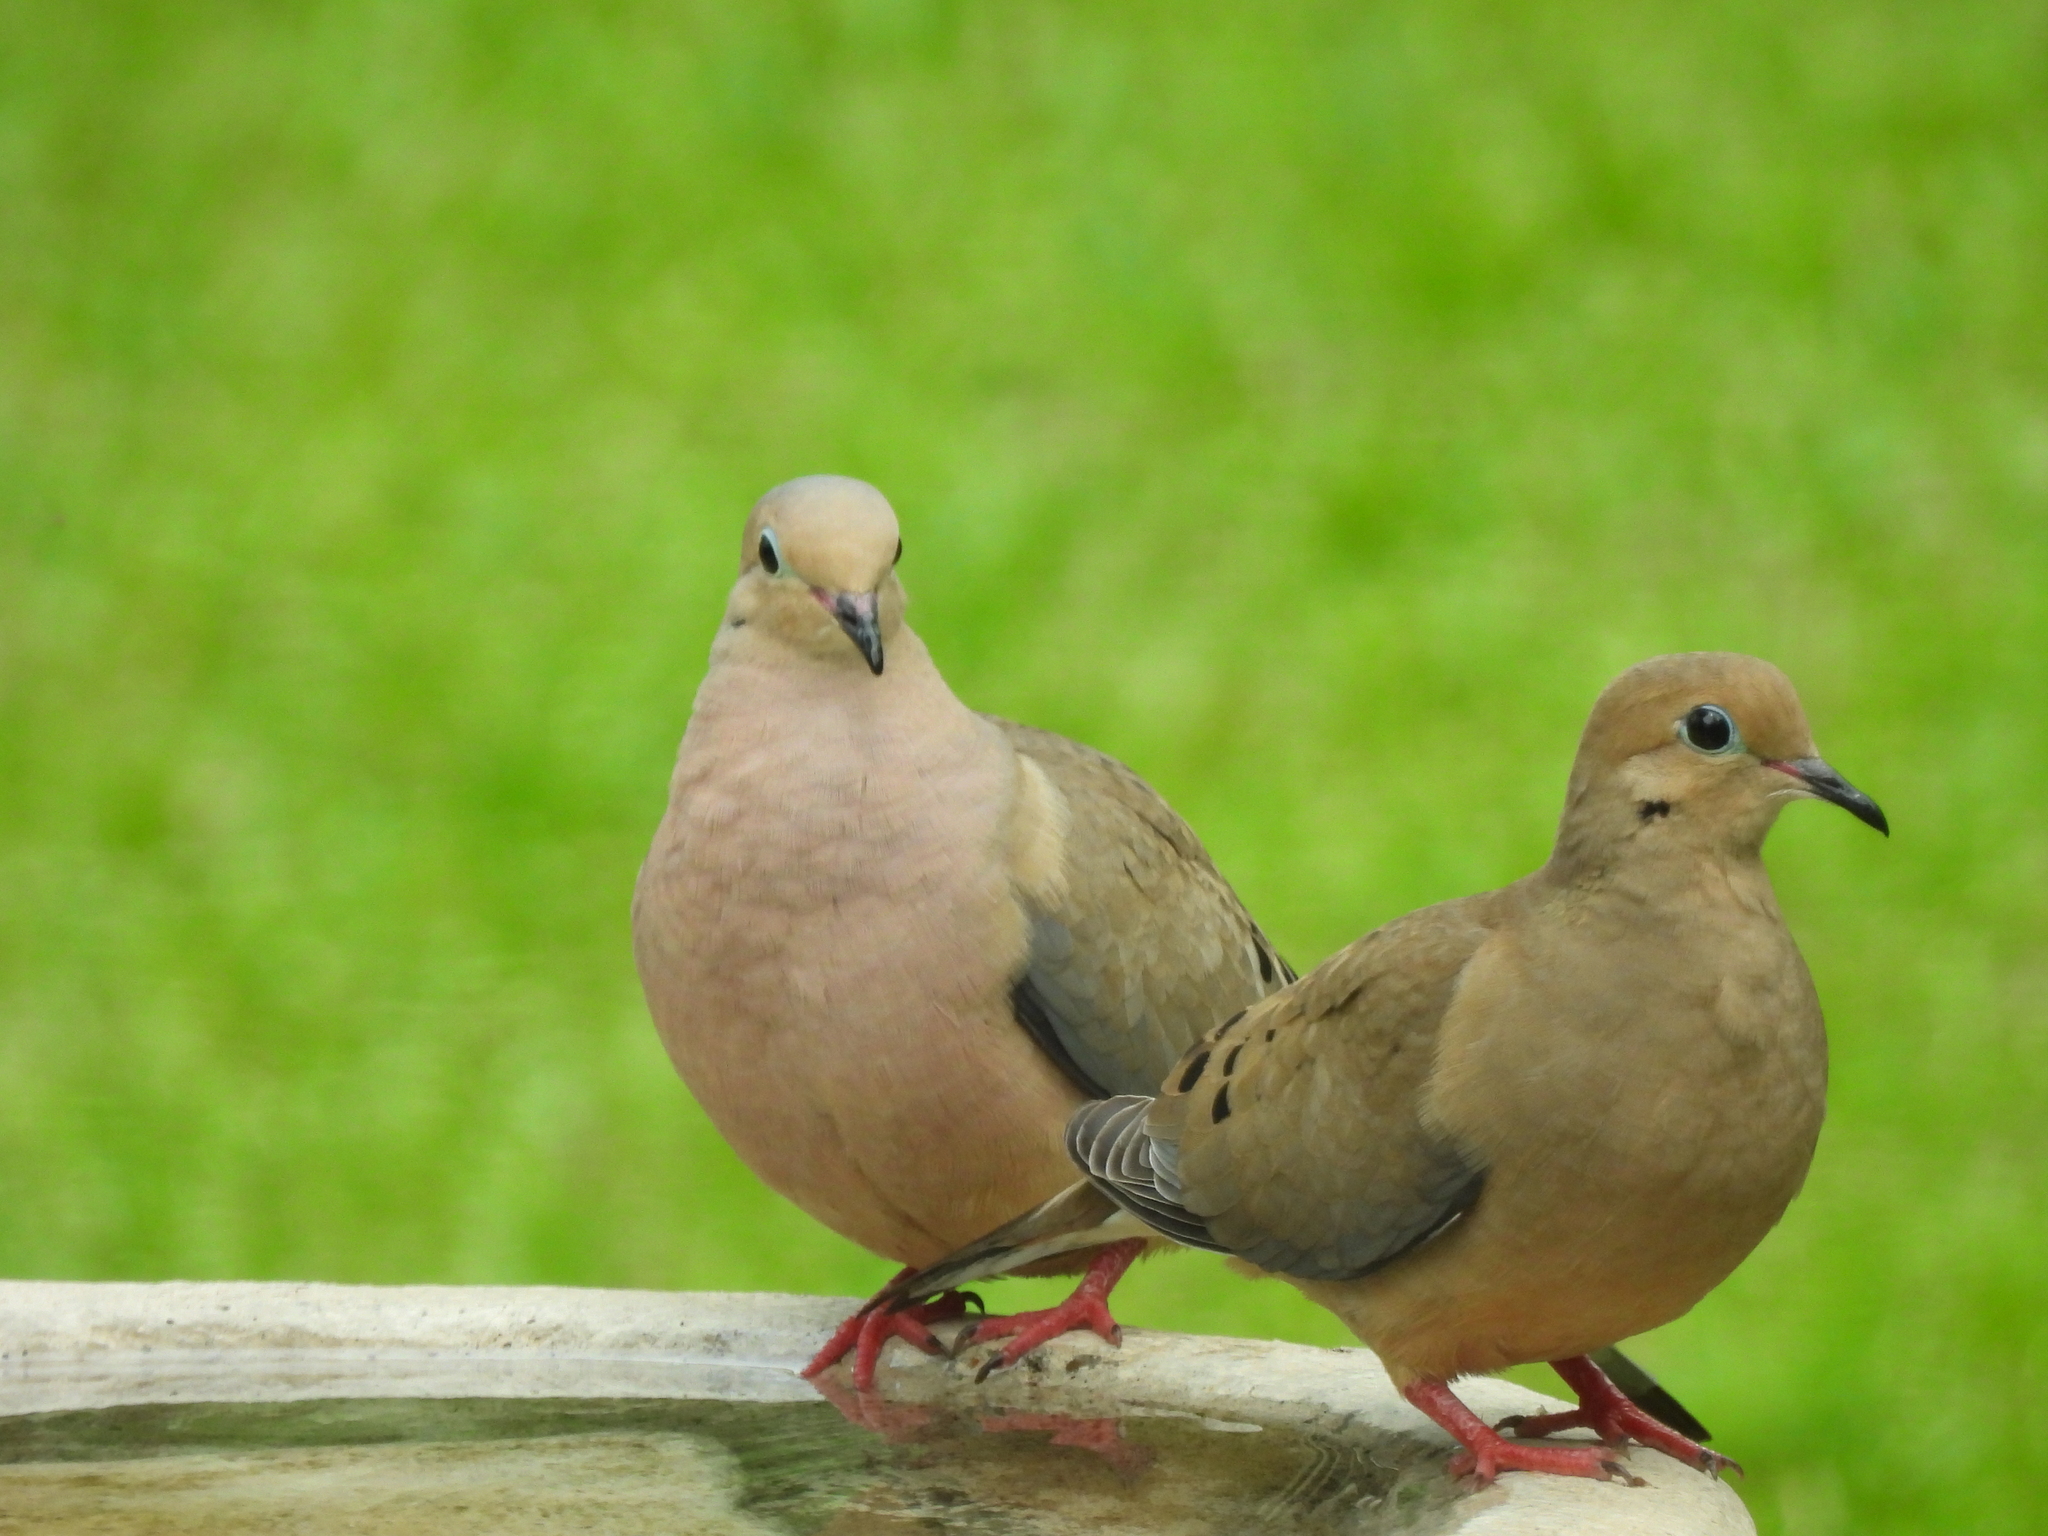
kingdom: Animalia
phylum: Chordata
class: Aves
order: Columbiformes
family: Columbidae
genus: Zenaida
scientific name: Zenaida macroura
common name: Mourning dove
